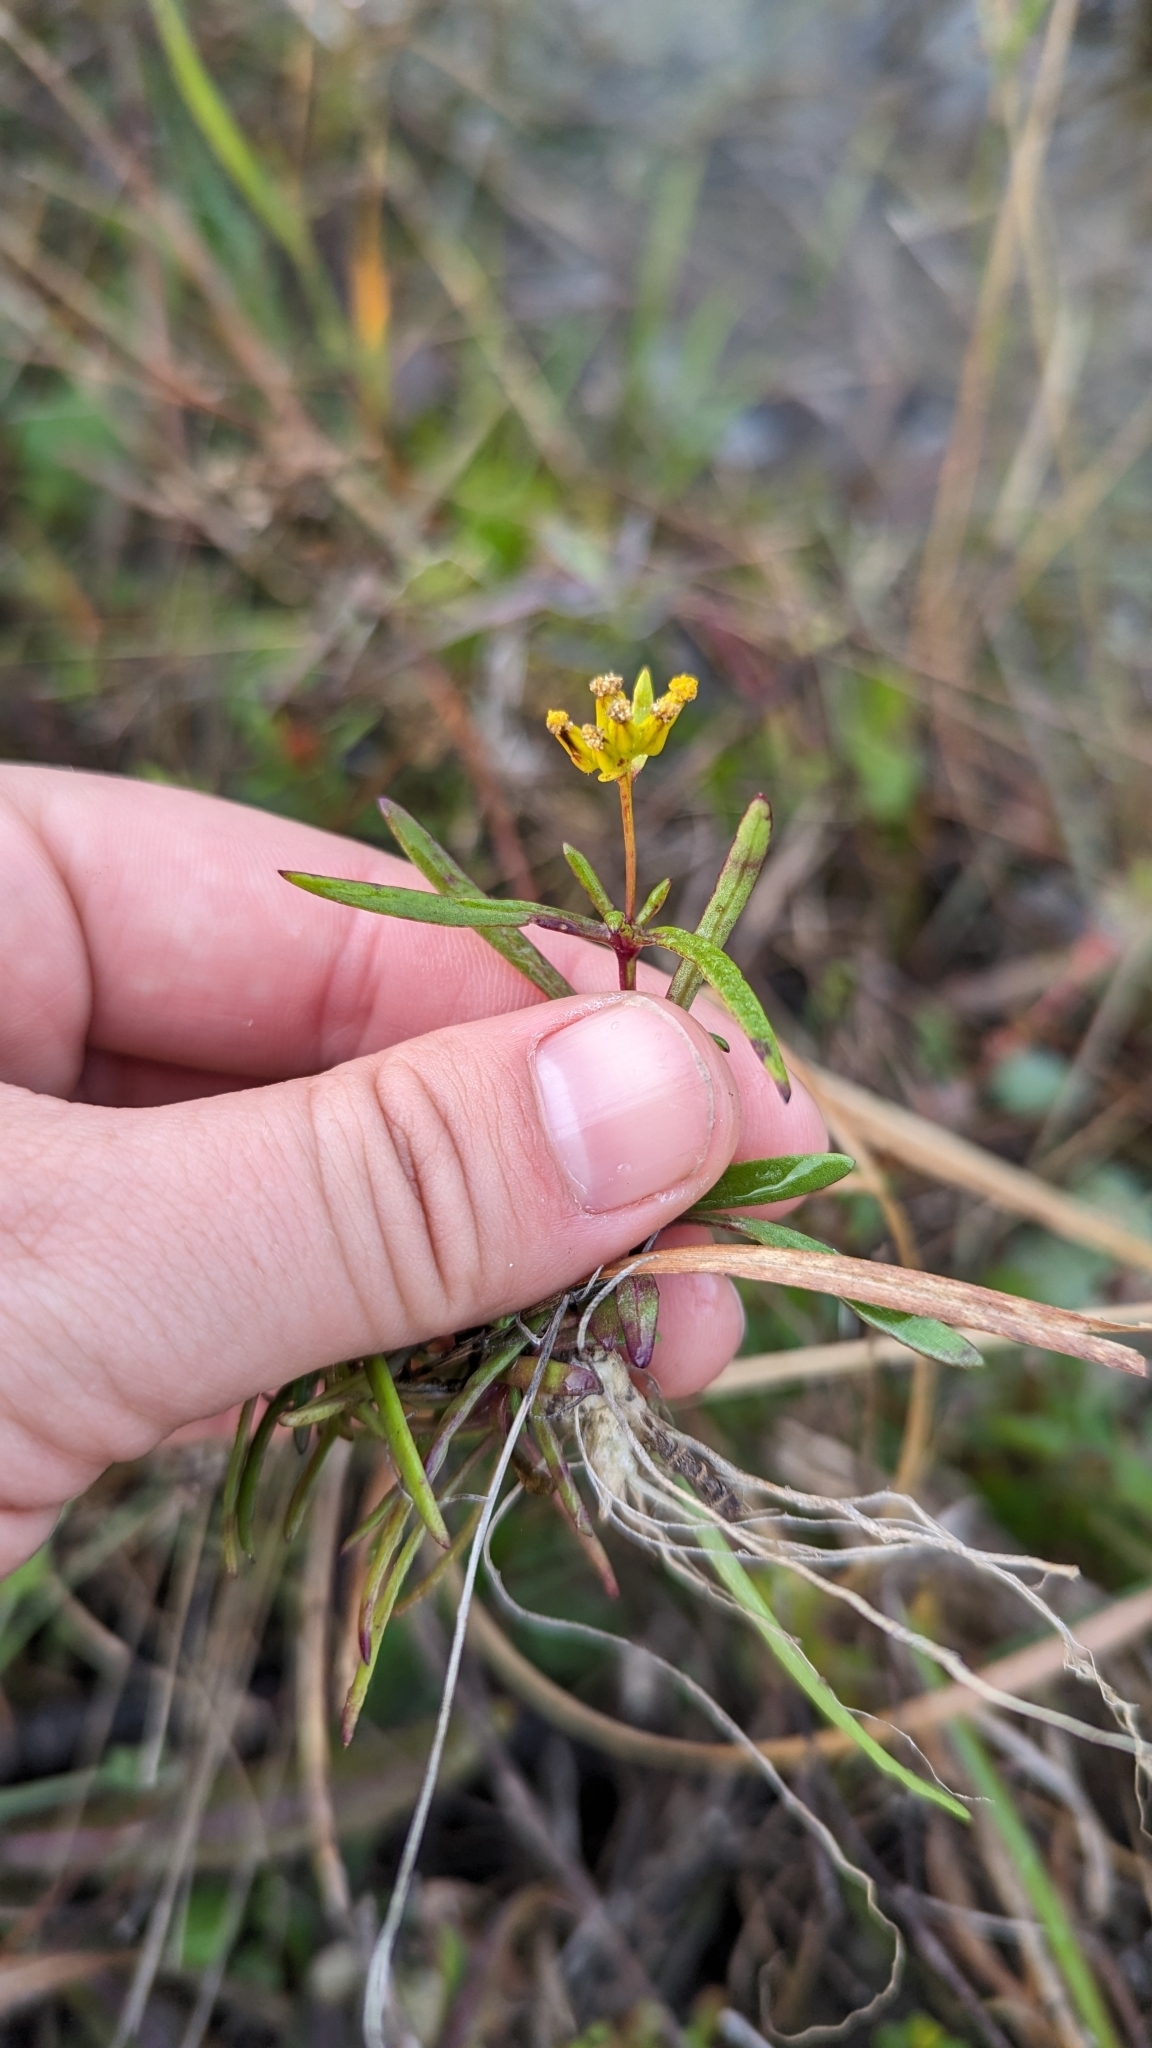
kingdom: Plantae
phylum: Tracheophyta
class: Magnoliopsida
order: Asterales
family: Asteraceae
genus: Flaveria
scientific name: Flaveria linearis
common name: Yellowtop
